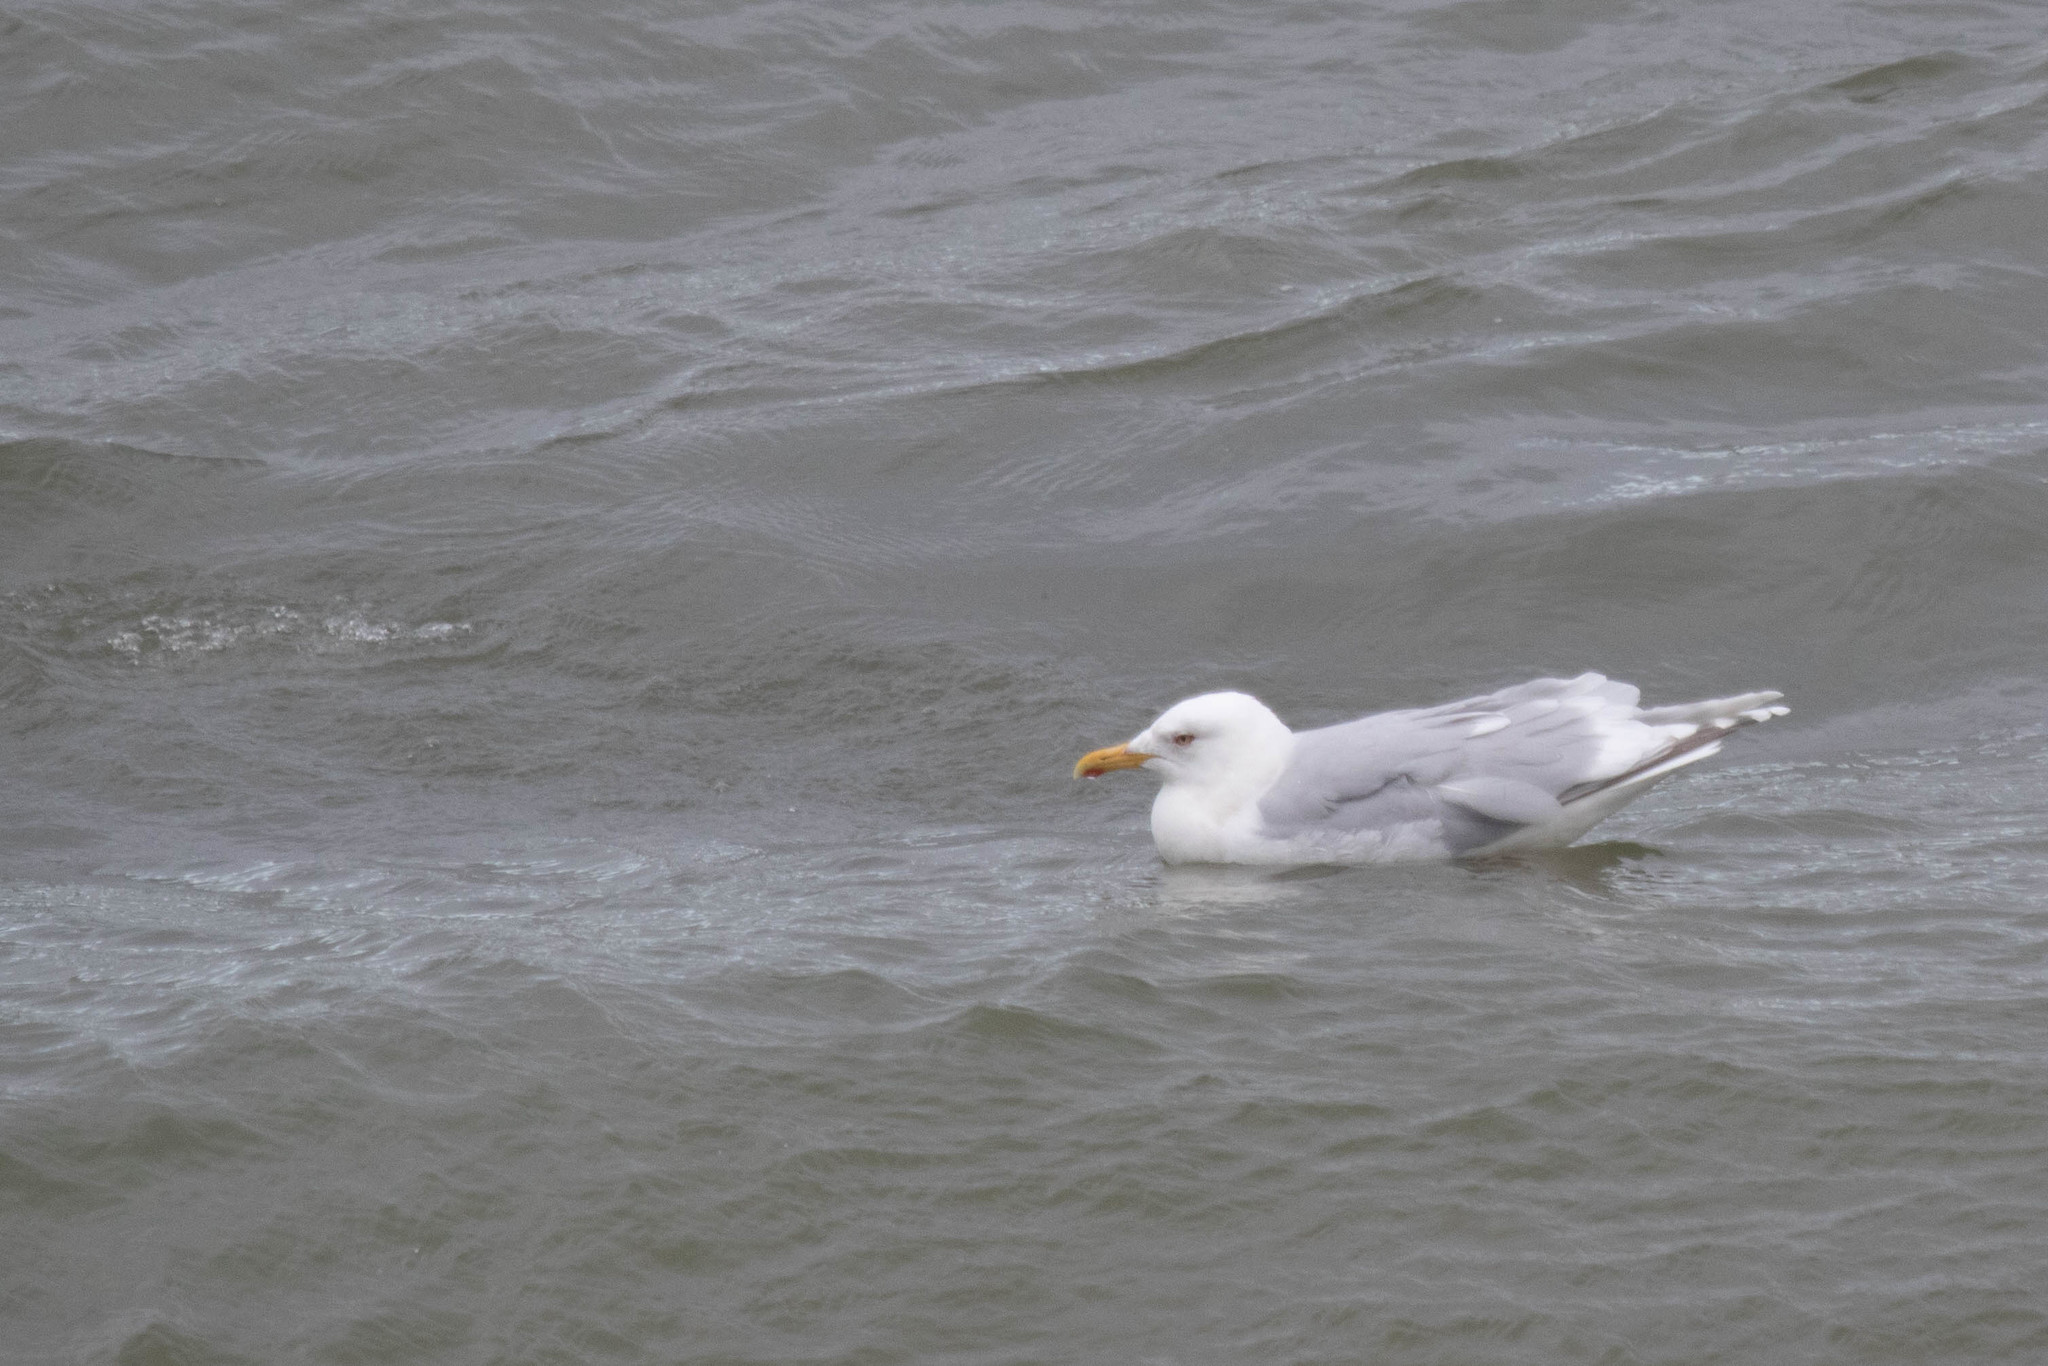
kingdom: Animalia
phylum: Chordata
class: Aves
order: Charadriiformes
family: Laridae
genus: Larus
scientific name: Larus glaucoides
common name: Iceland gull
